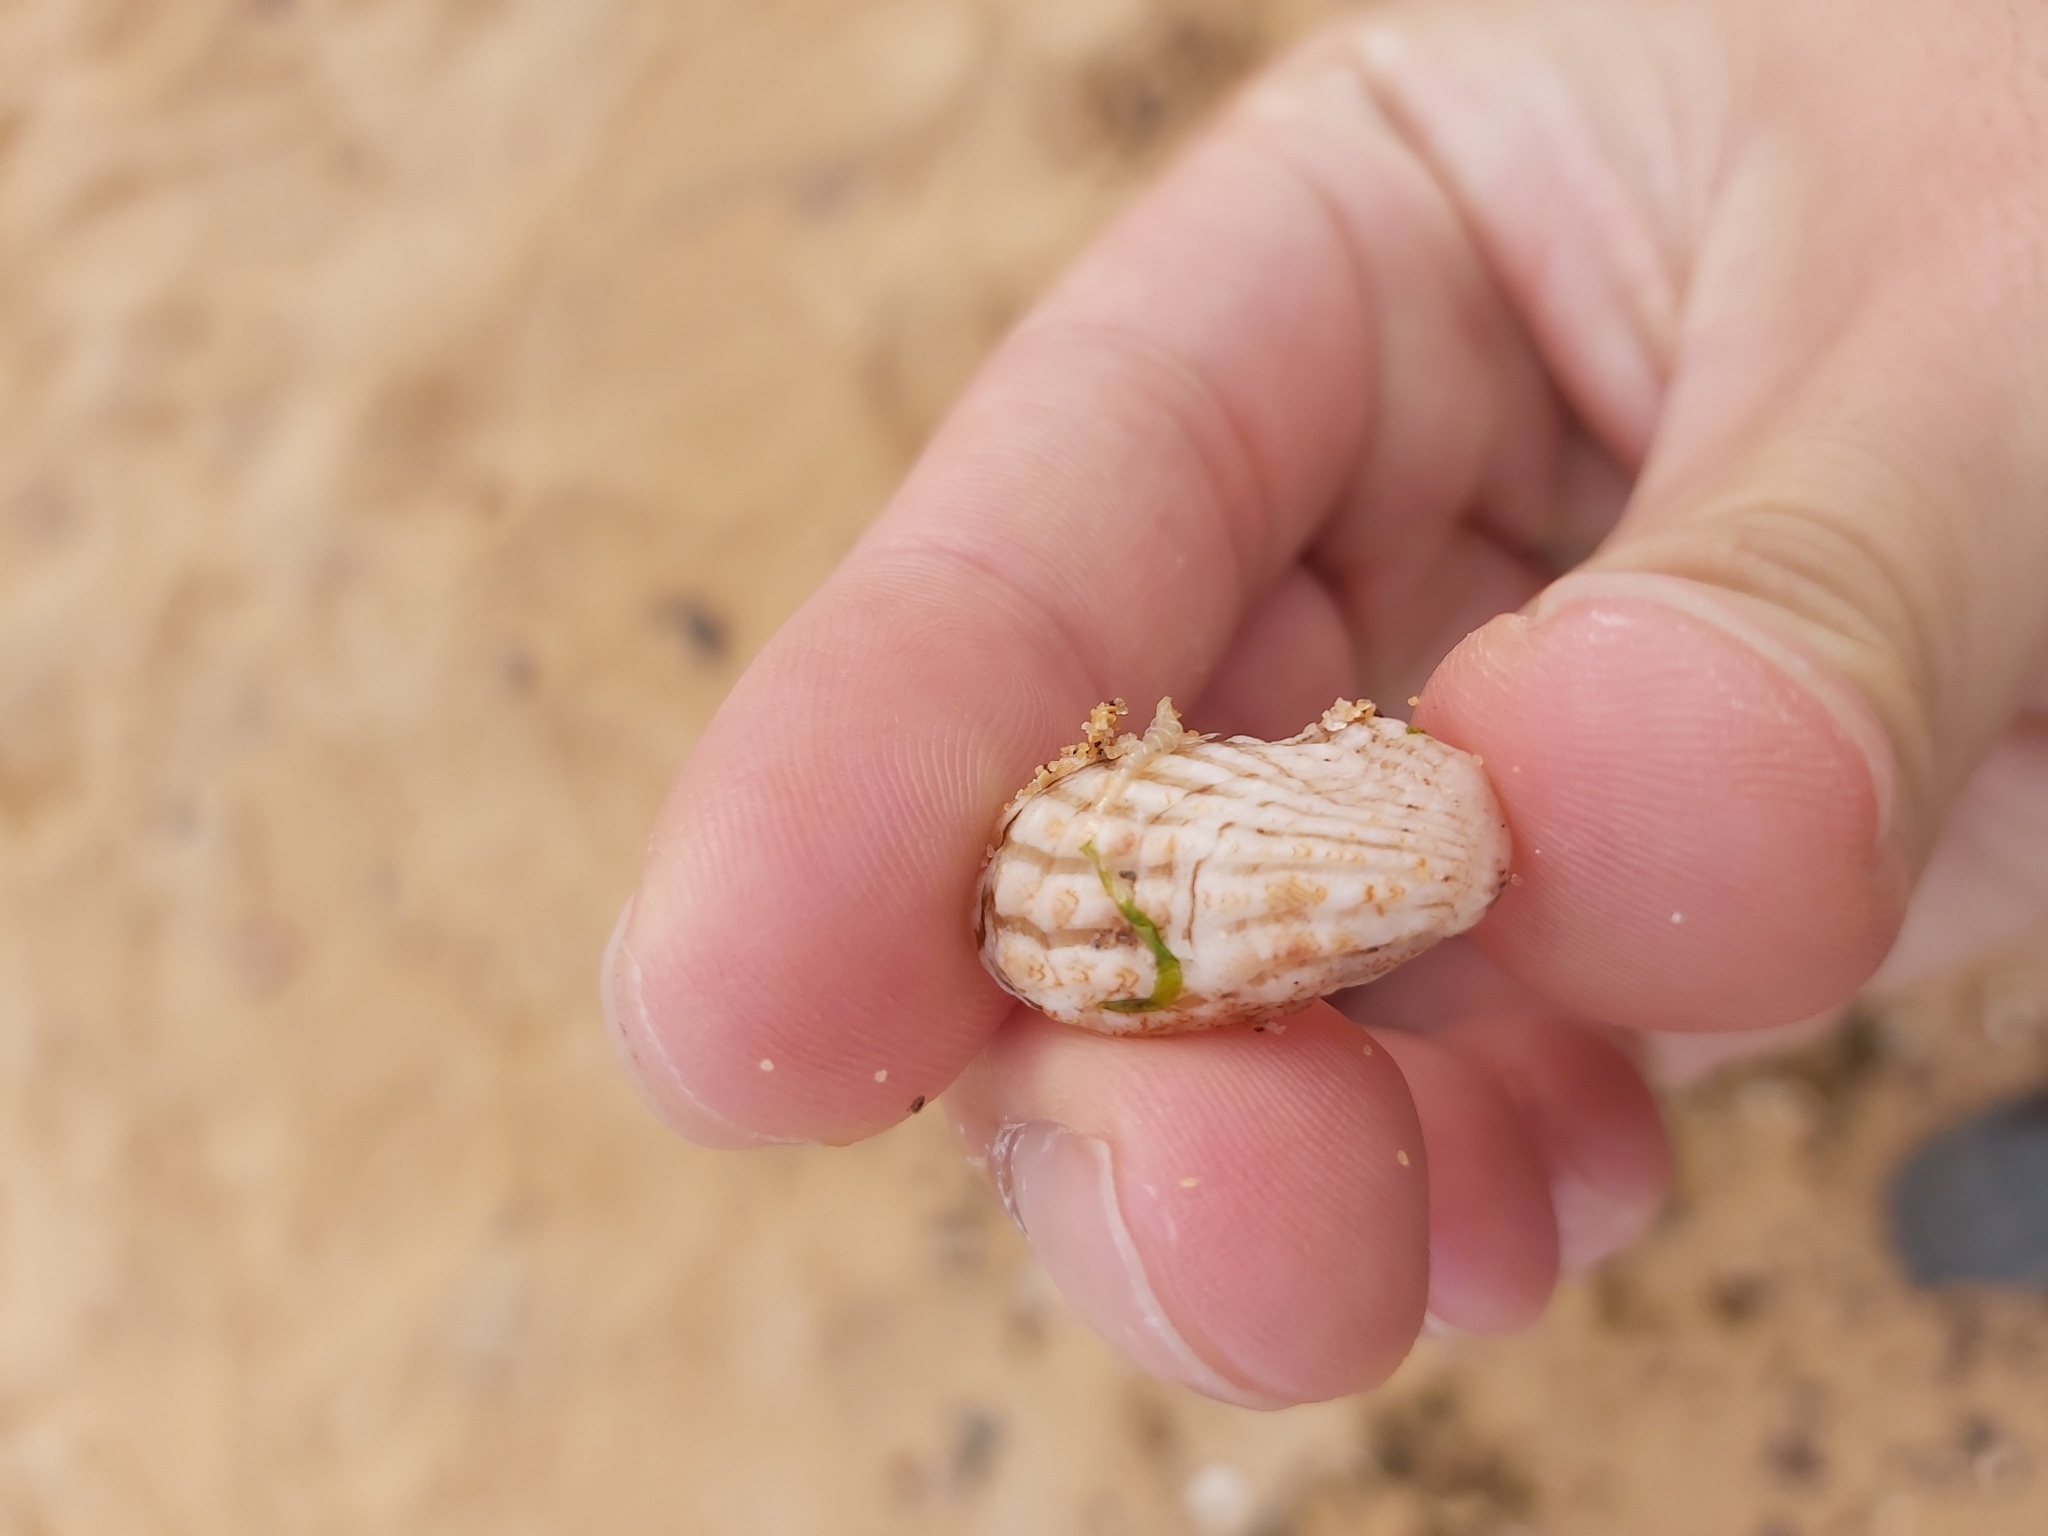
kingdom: Animalia
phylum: Mollusca
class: Bivalvia
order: Carditida
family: Carditidae
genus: Cardita
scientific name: Cardita aviculina
